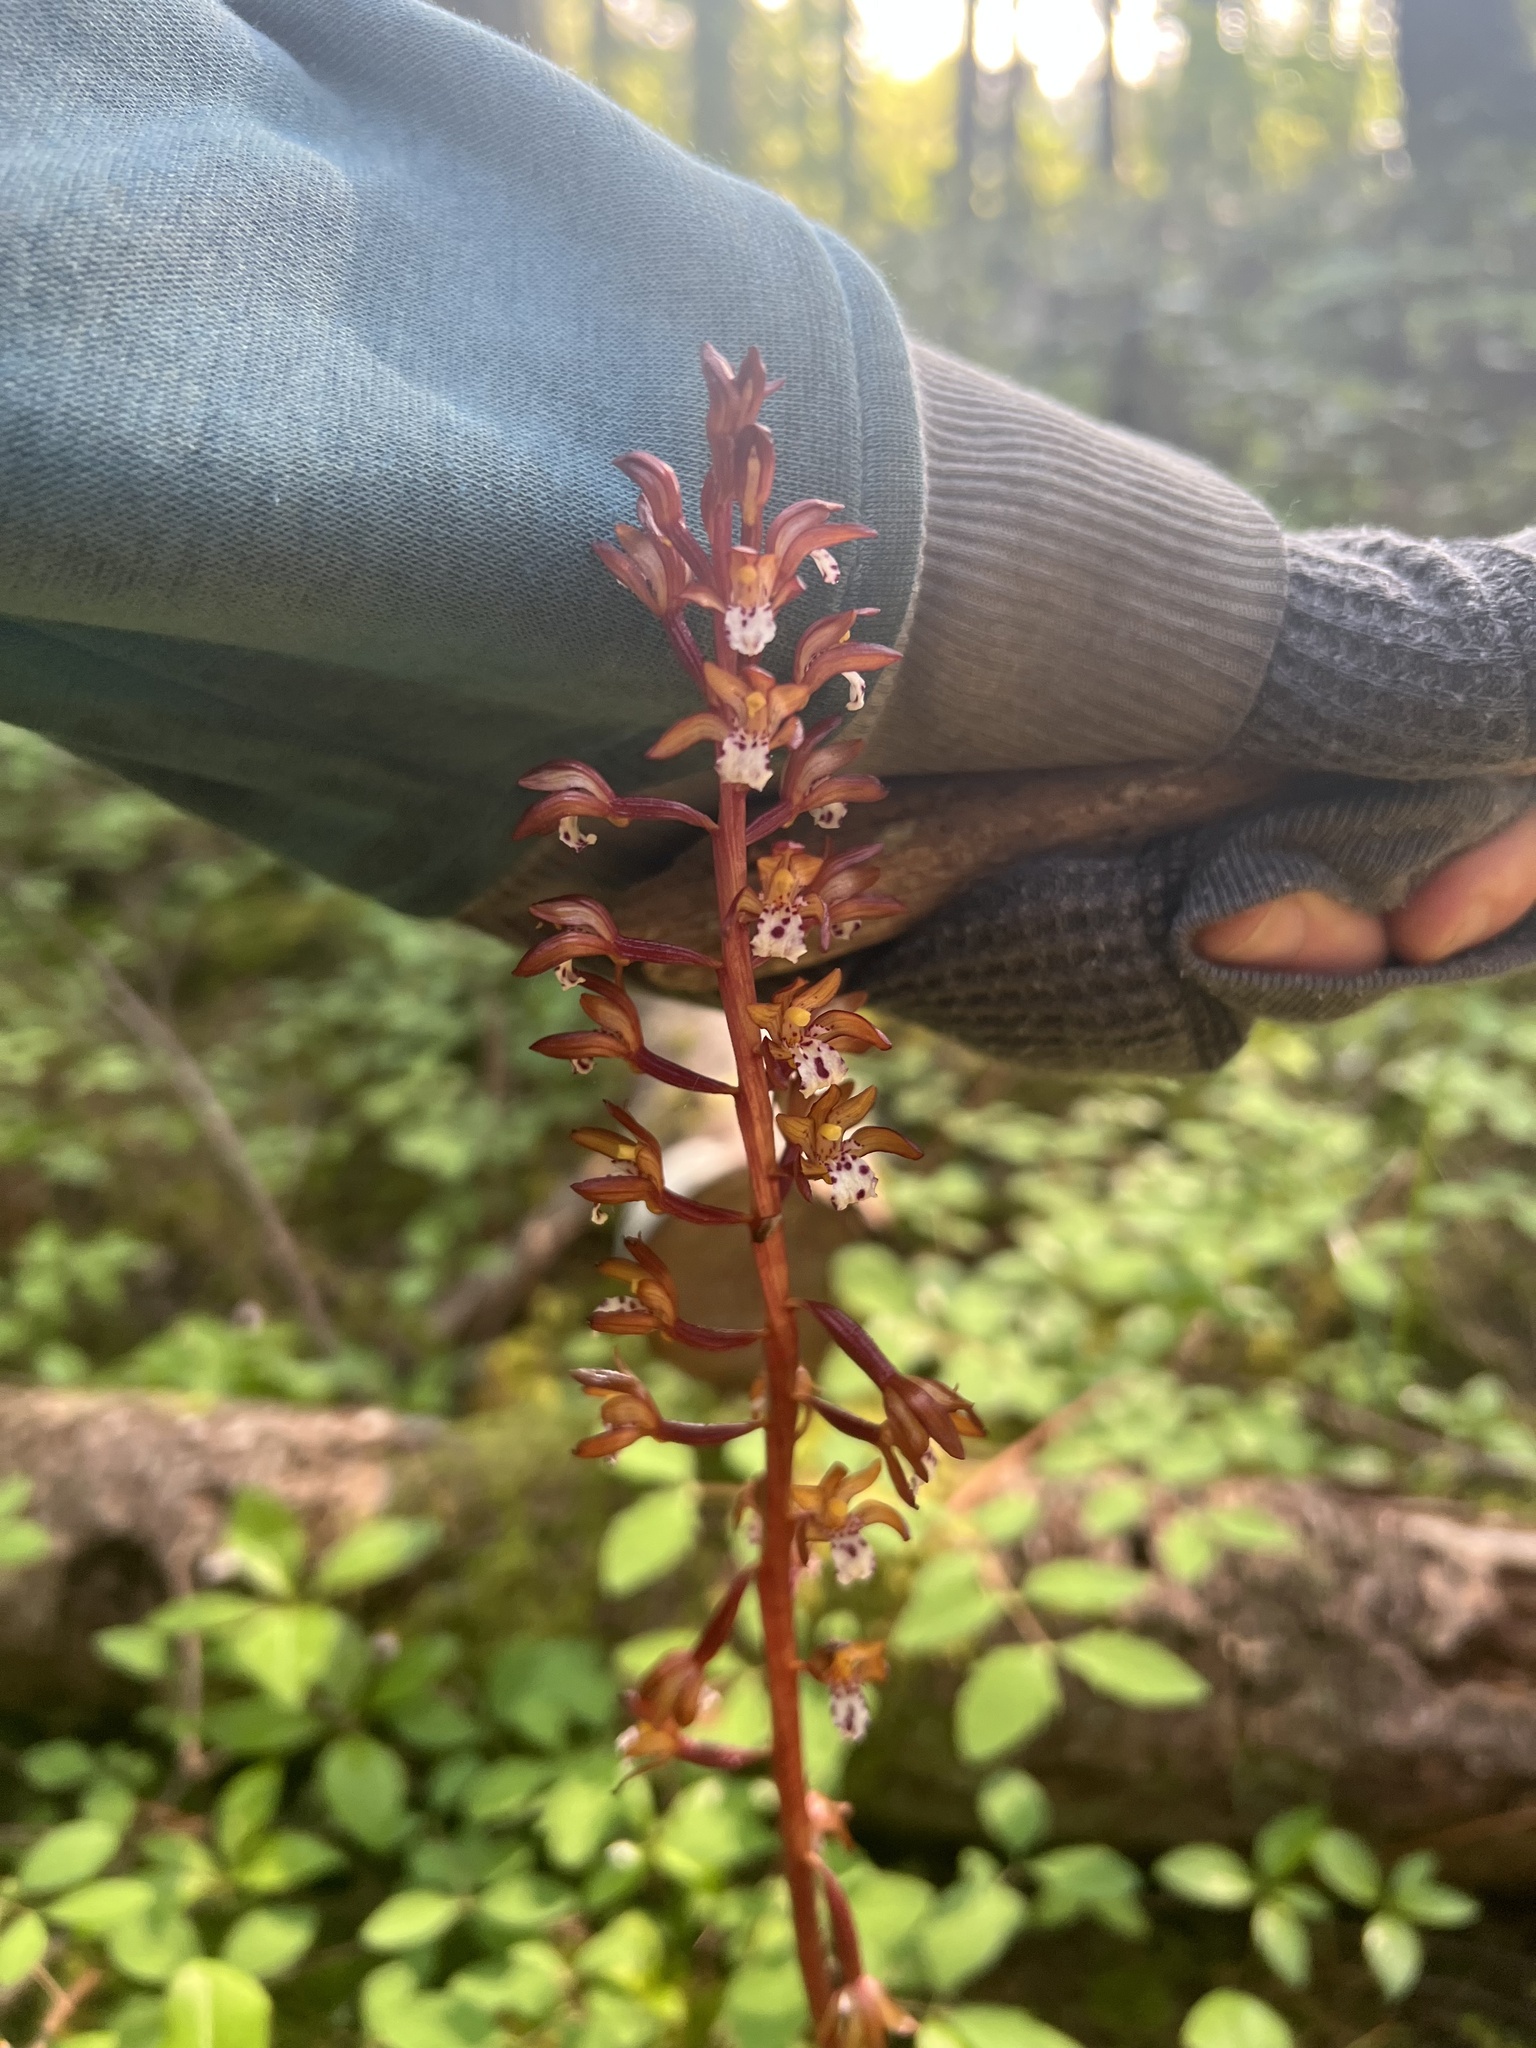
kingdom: Plantae
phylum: Tracheophyta
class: Liliopsida
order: Asparagales
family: Orchidaceae
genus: Corallorhiza
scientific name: Corallorhiza maculata
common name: Spotted coralroot
